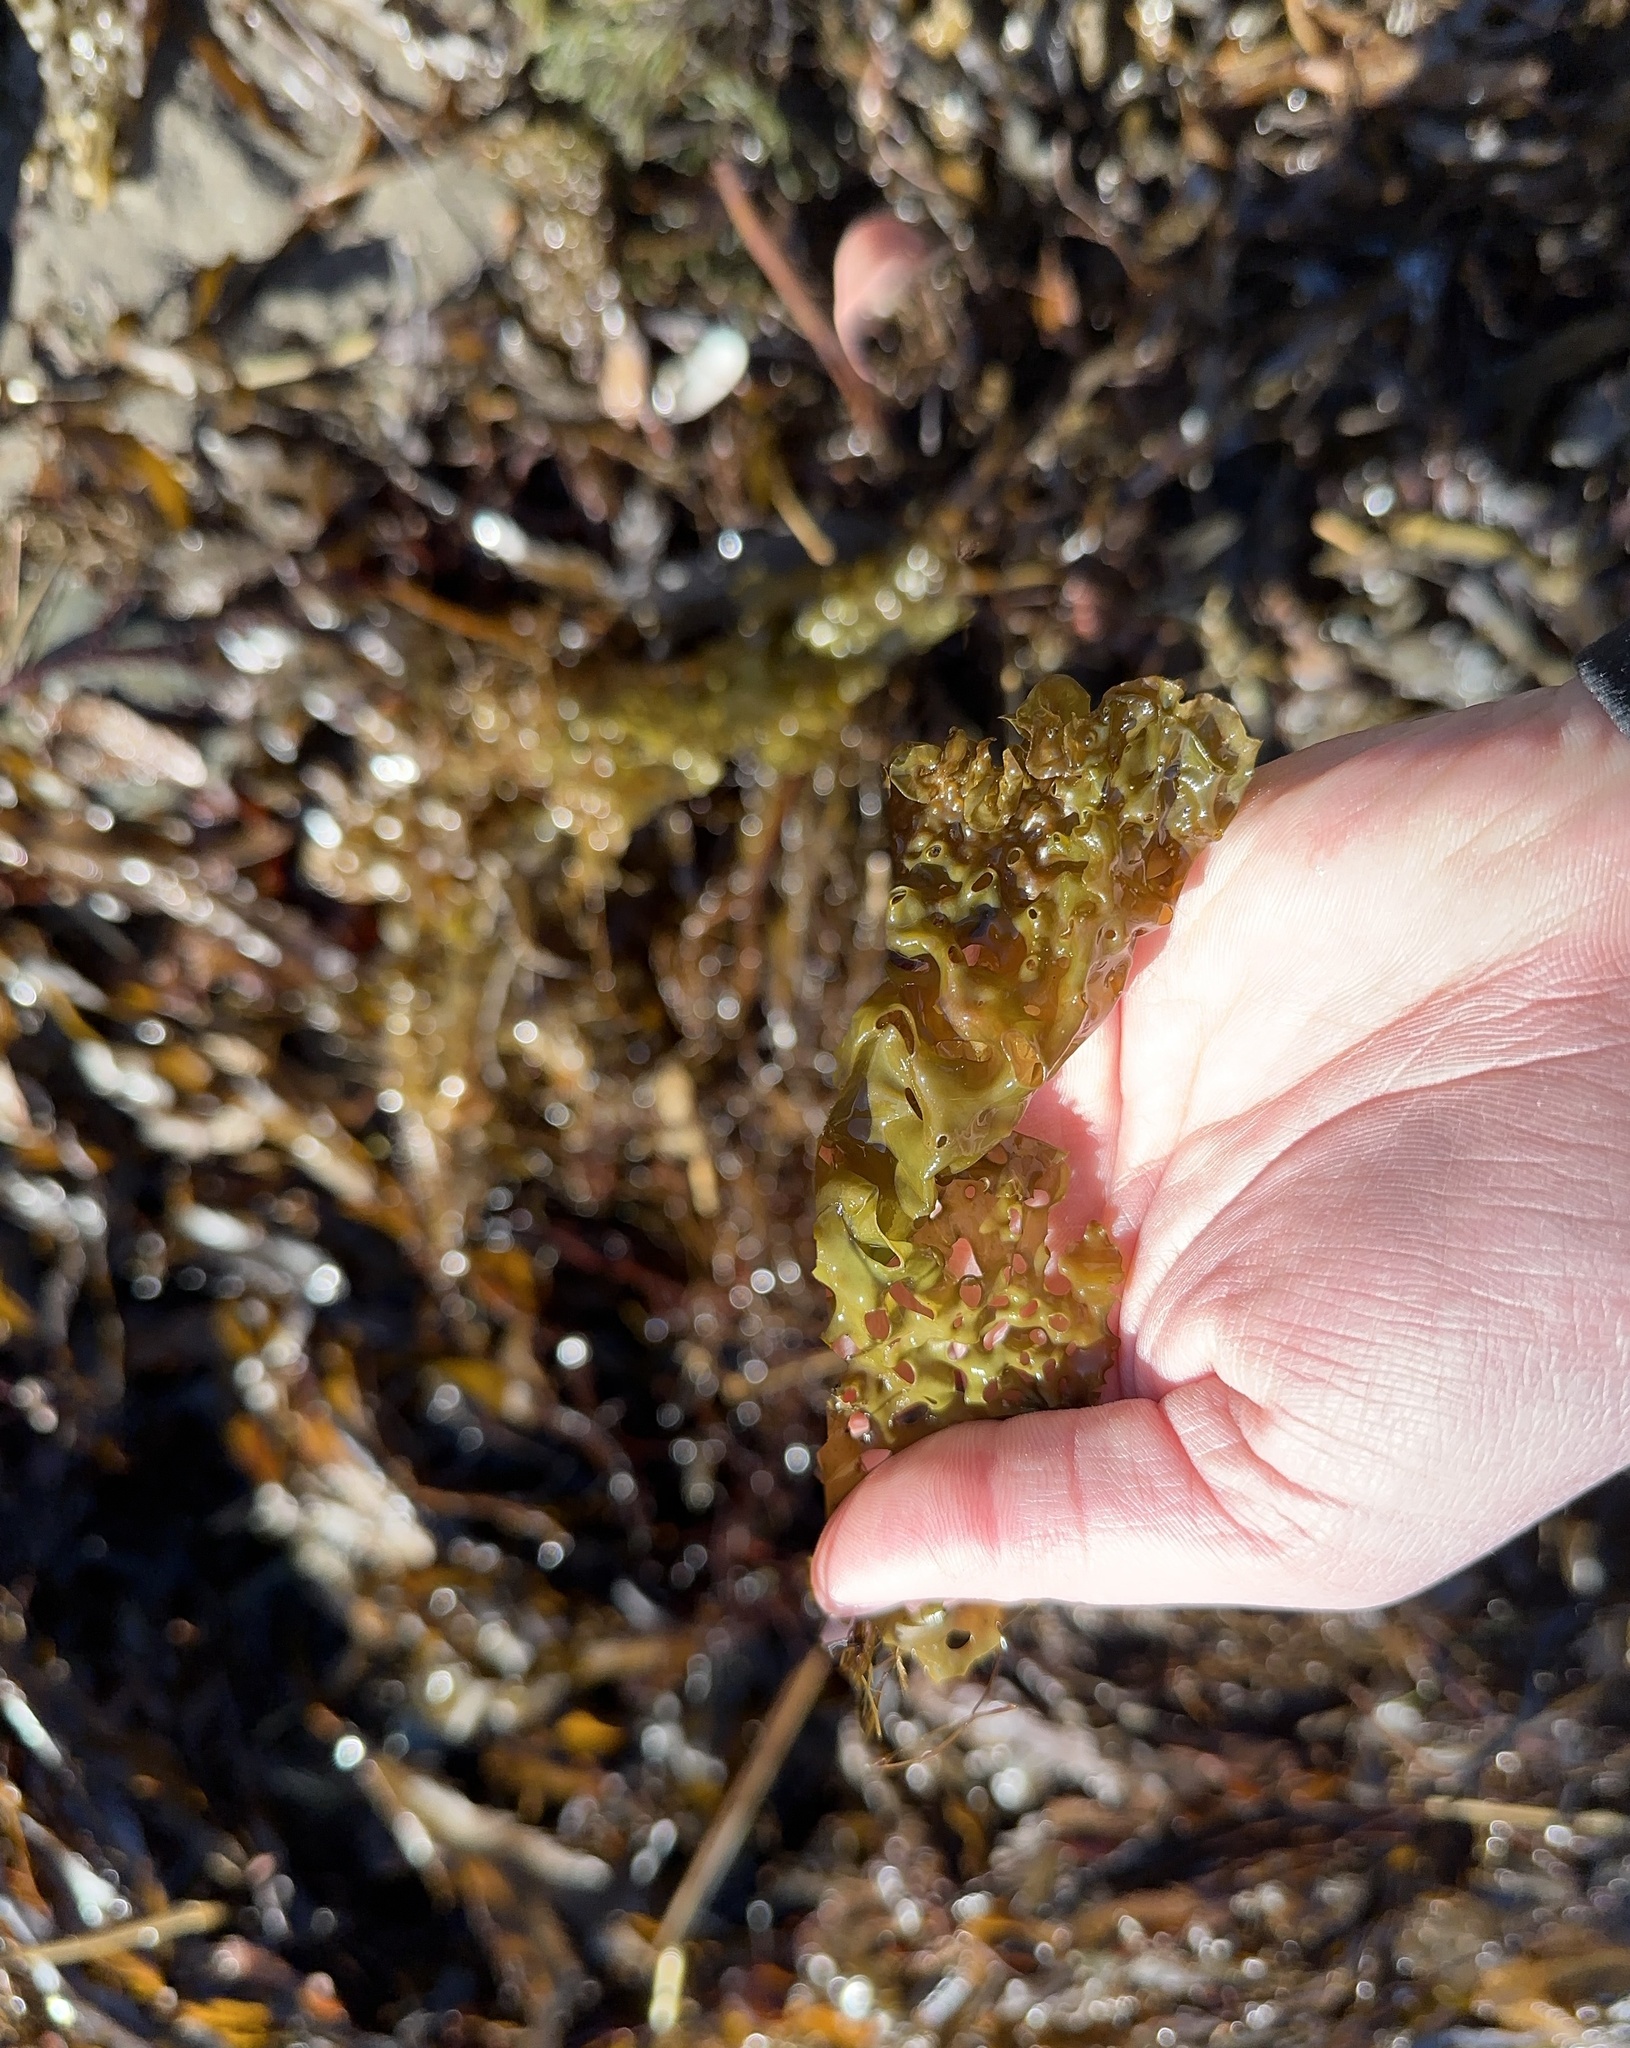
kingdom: Chromista
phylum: Ochrophyta
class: Phaeophyceae
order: Laminariales
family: Costariaceae
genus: Agarum
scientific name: Agarum clathratum
